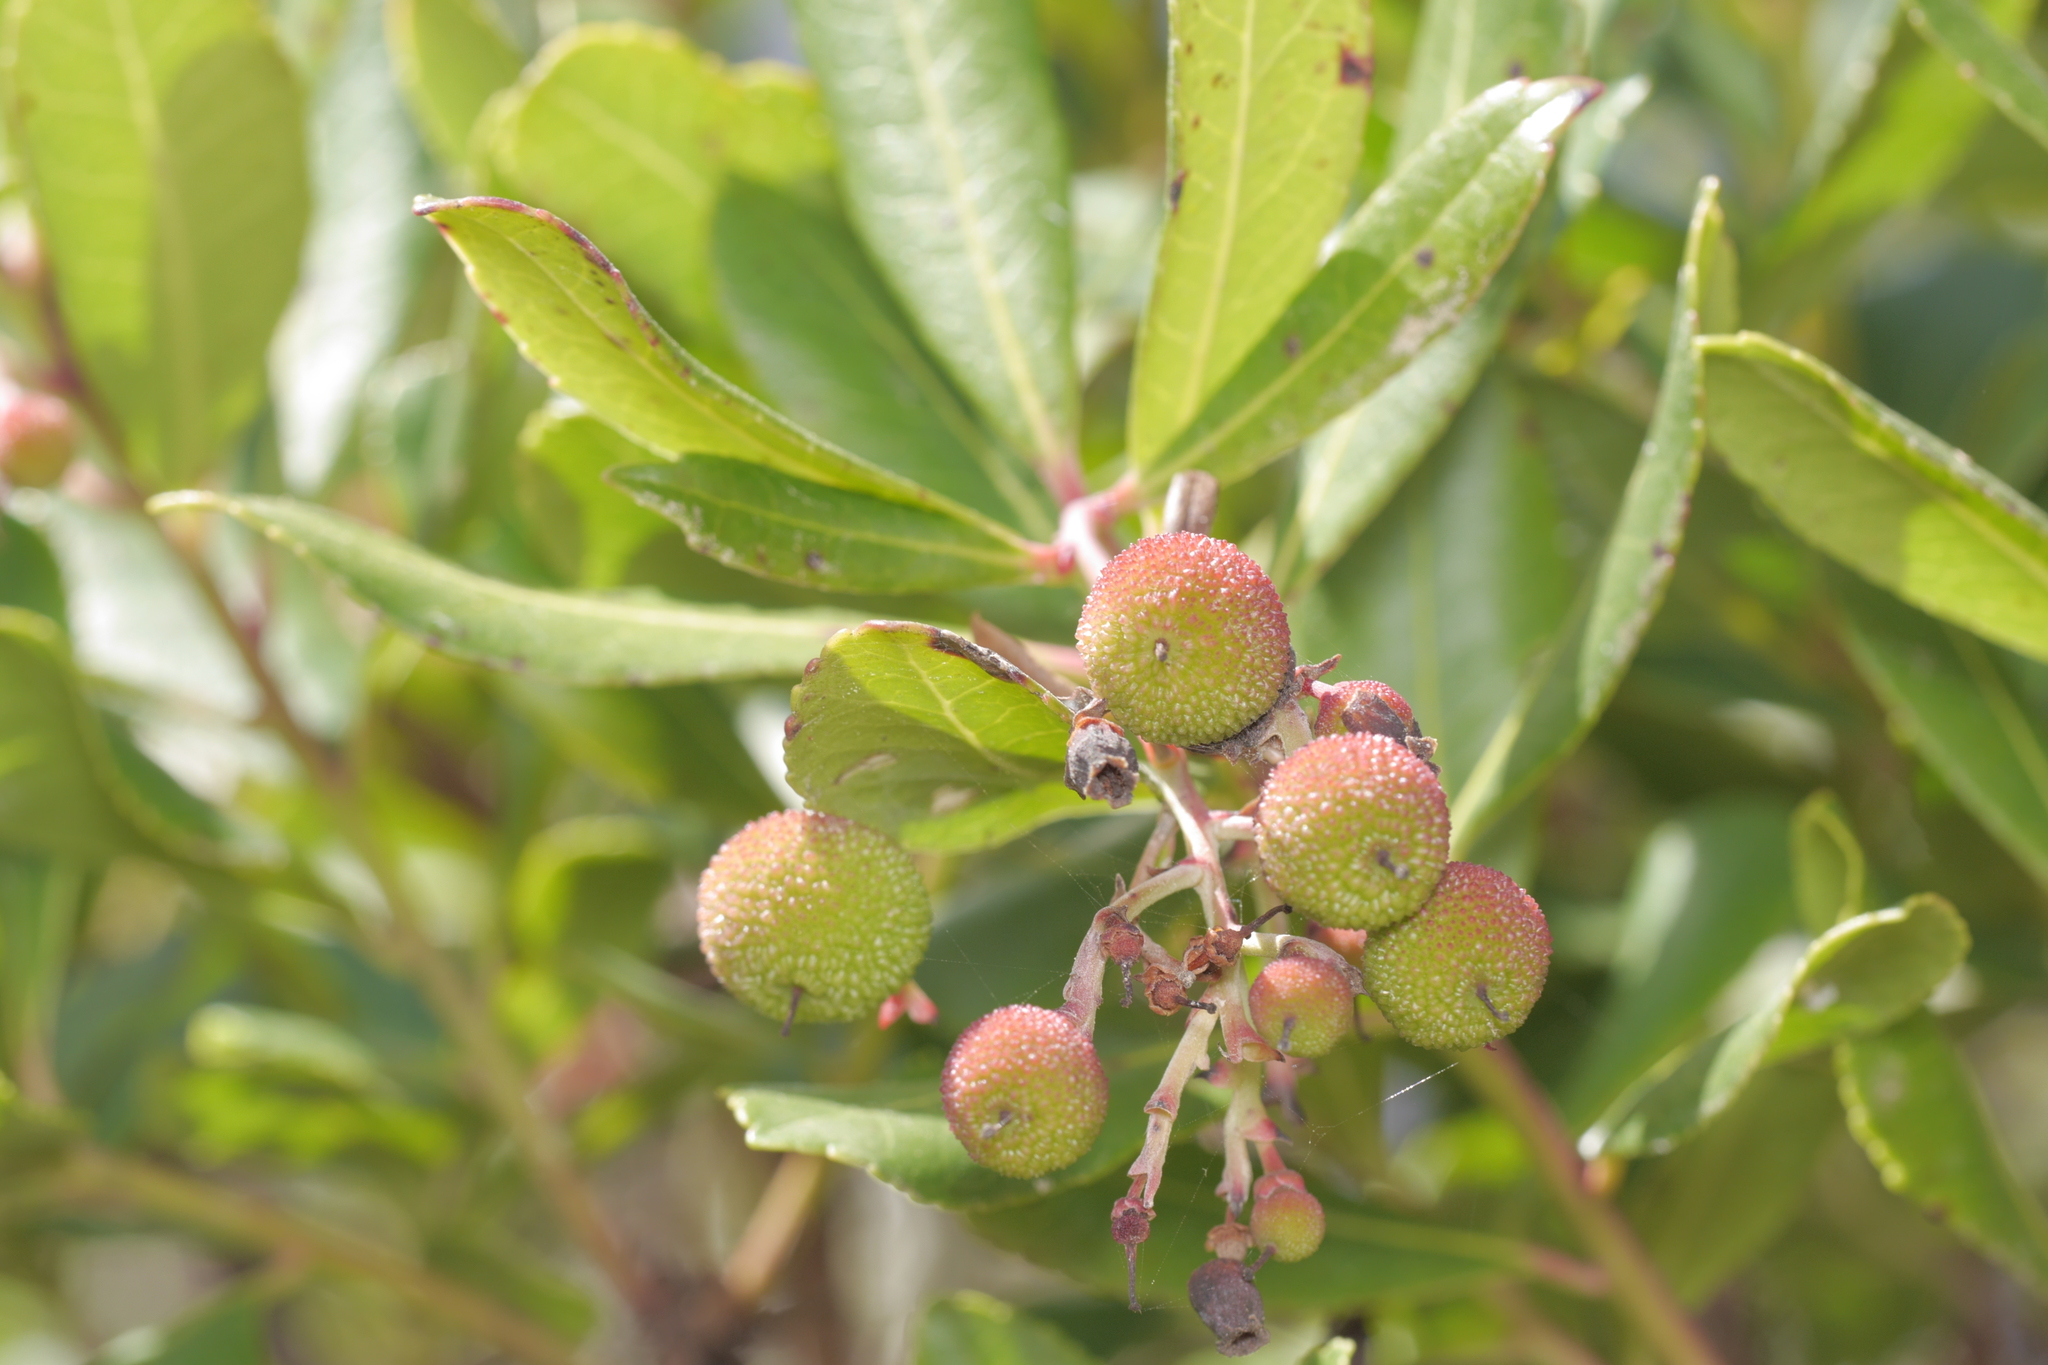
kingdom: Plantae
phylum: Tracheophyta
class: Magnoliopsida
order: Ericales
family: Ericaceae
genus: Arbutus
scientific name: Arbutus unedo
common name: Strawberry-tree
